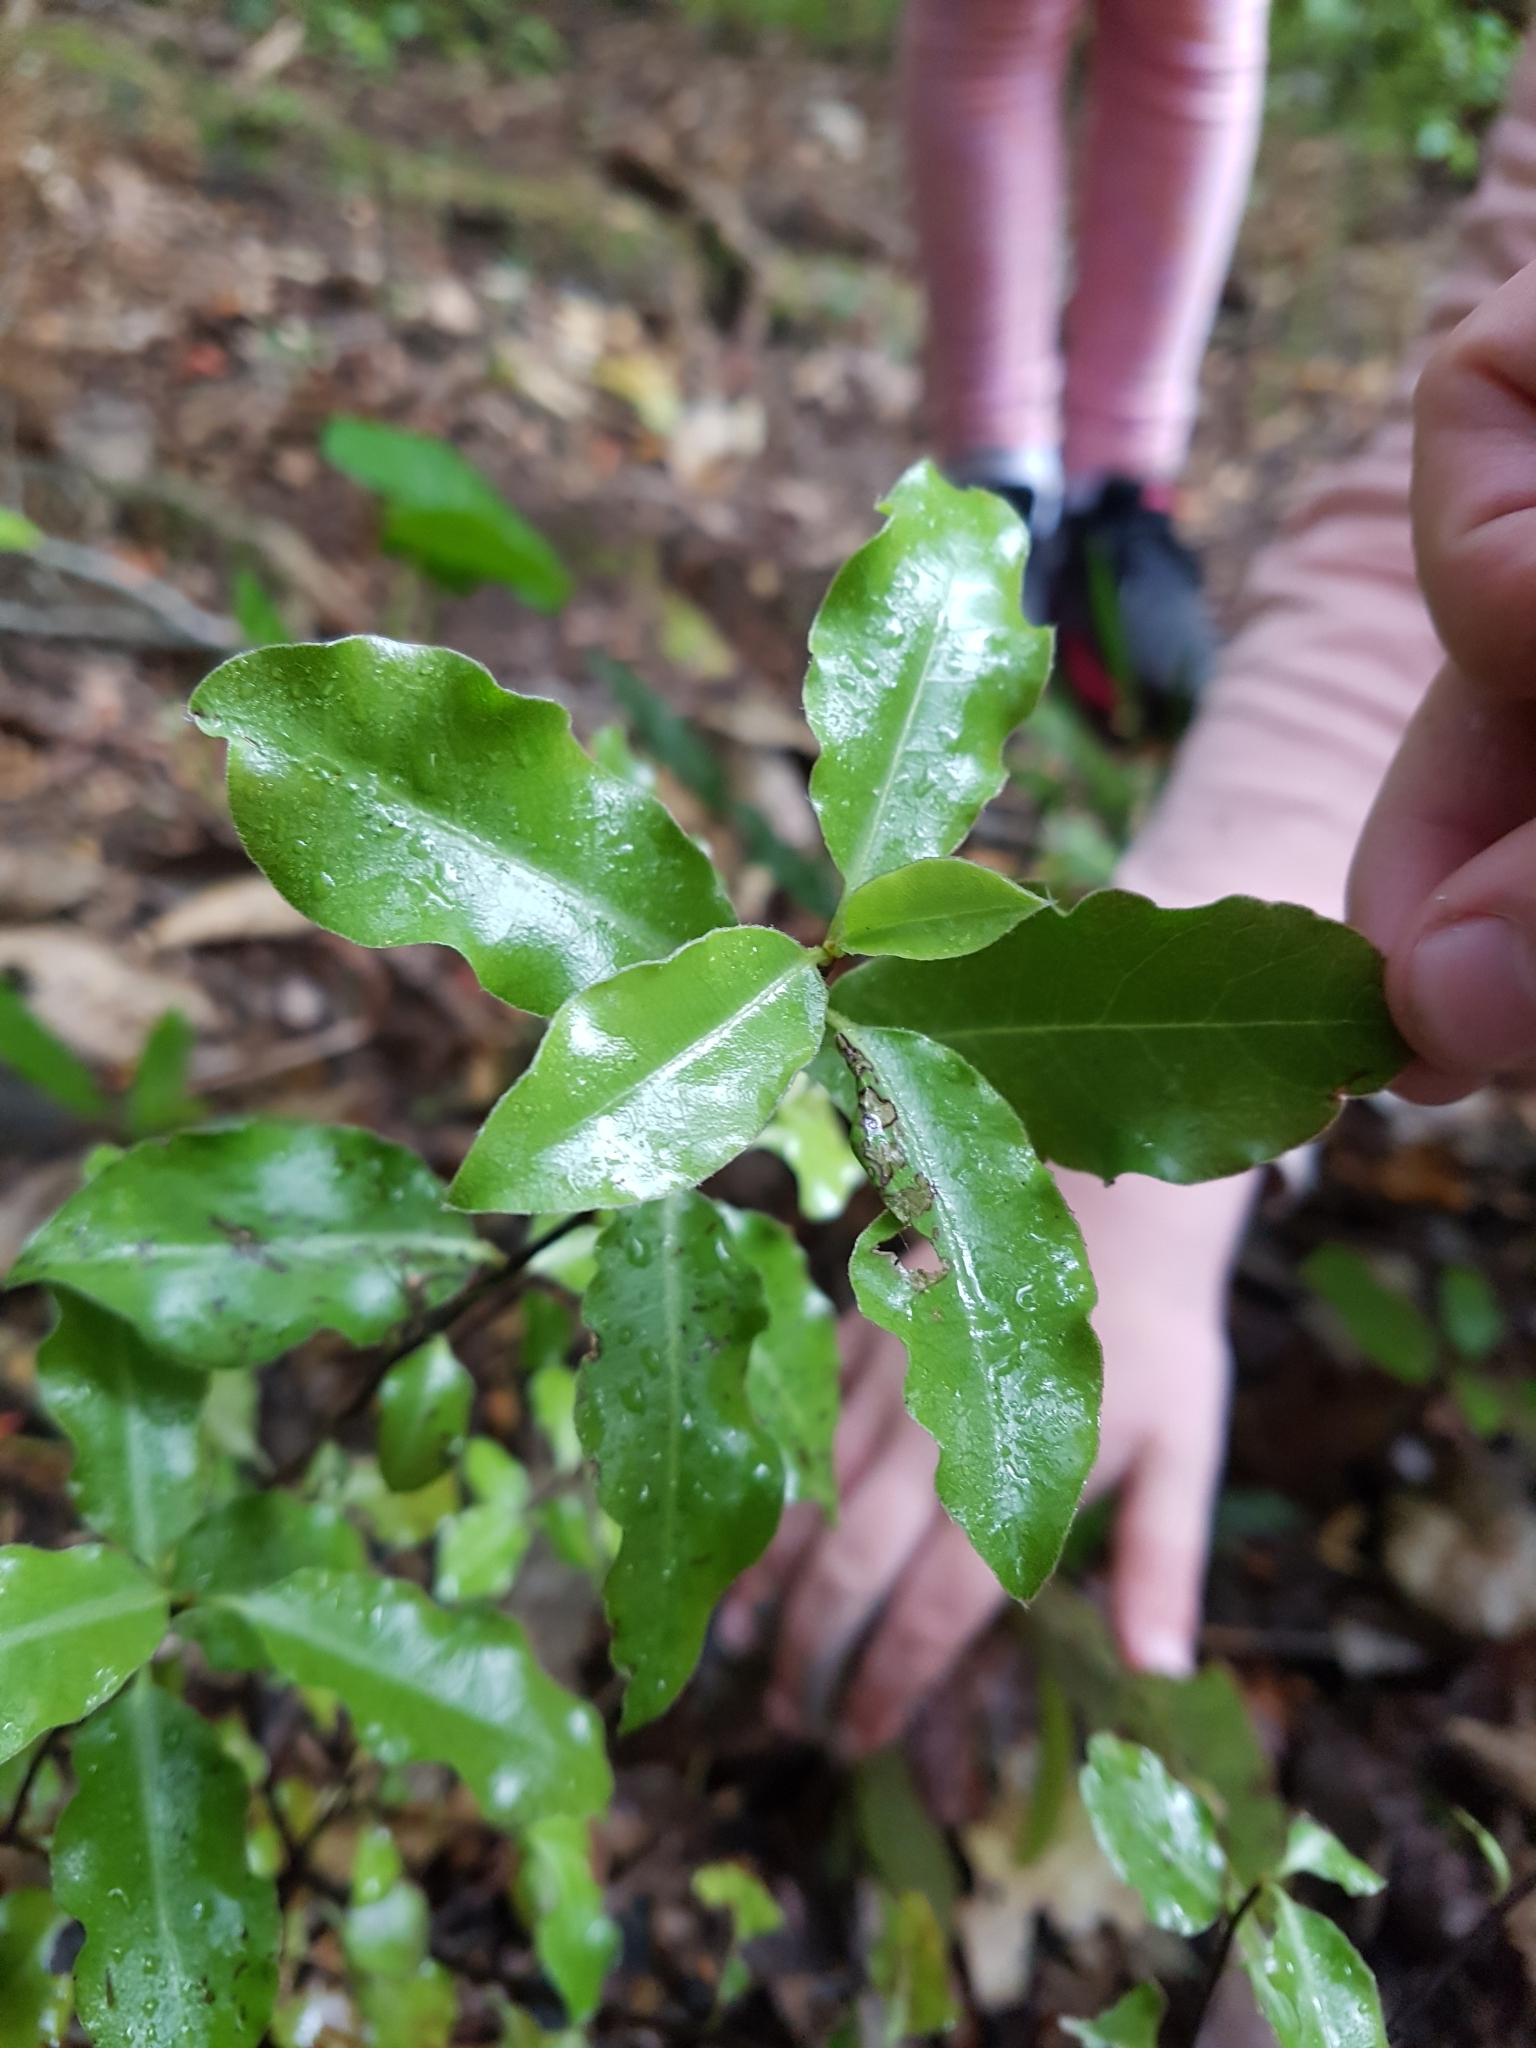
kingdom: Plantae
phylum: Tracheophyta
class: Magnoliopsida
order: Apiales
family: Pittosporaceae
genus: Pittosporum
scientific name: Pittosporum tenuifolium
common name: Kohuhu
